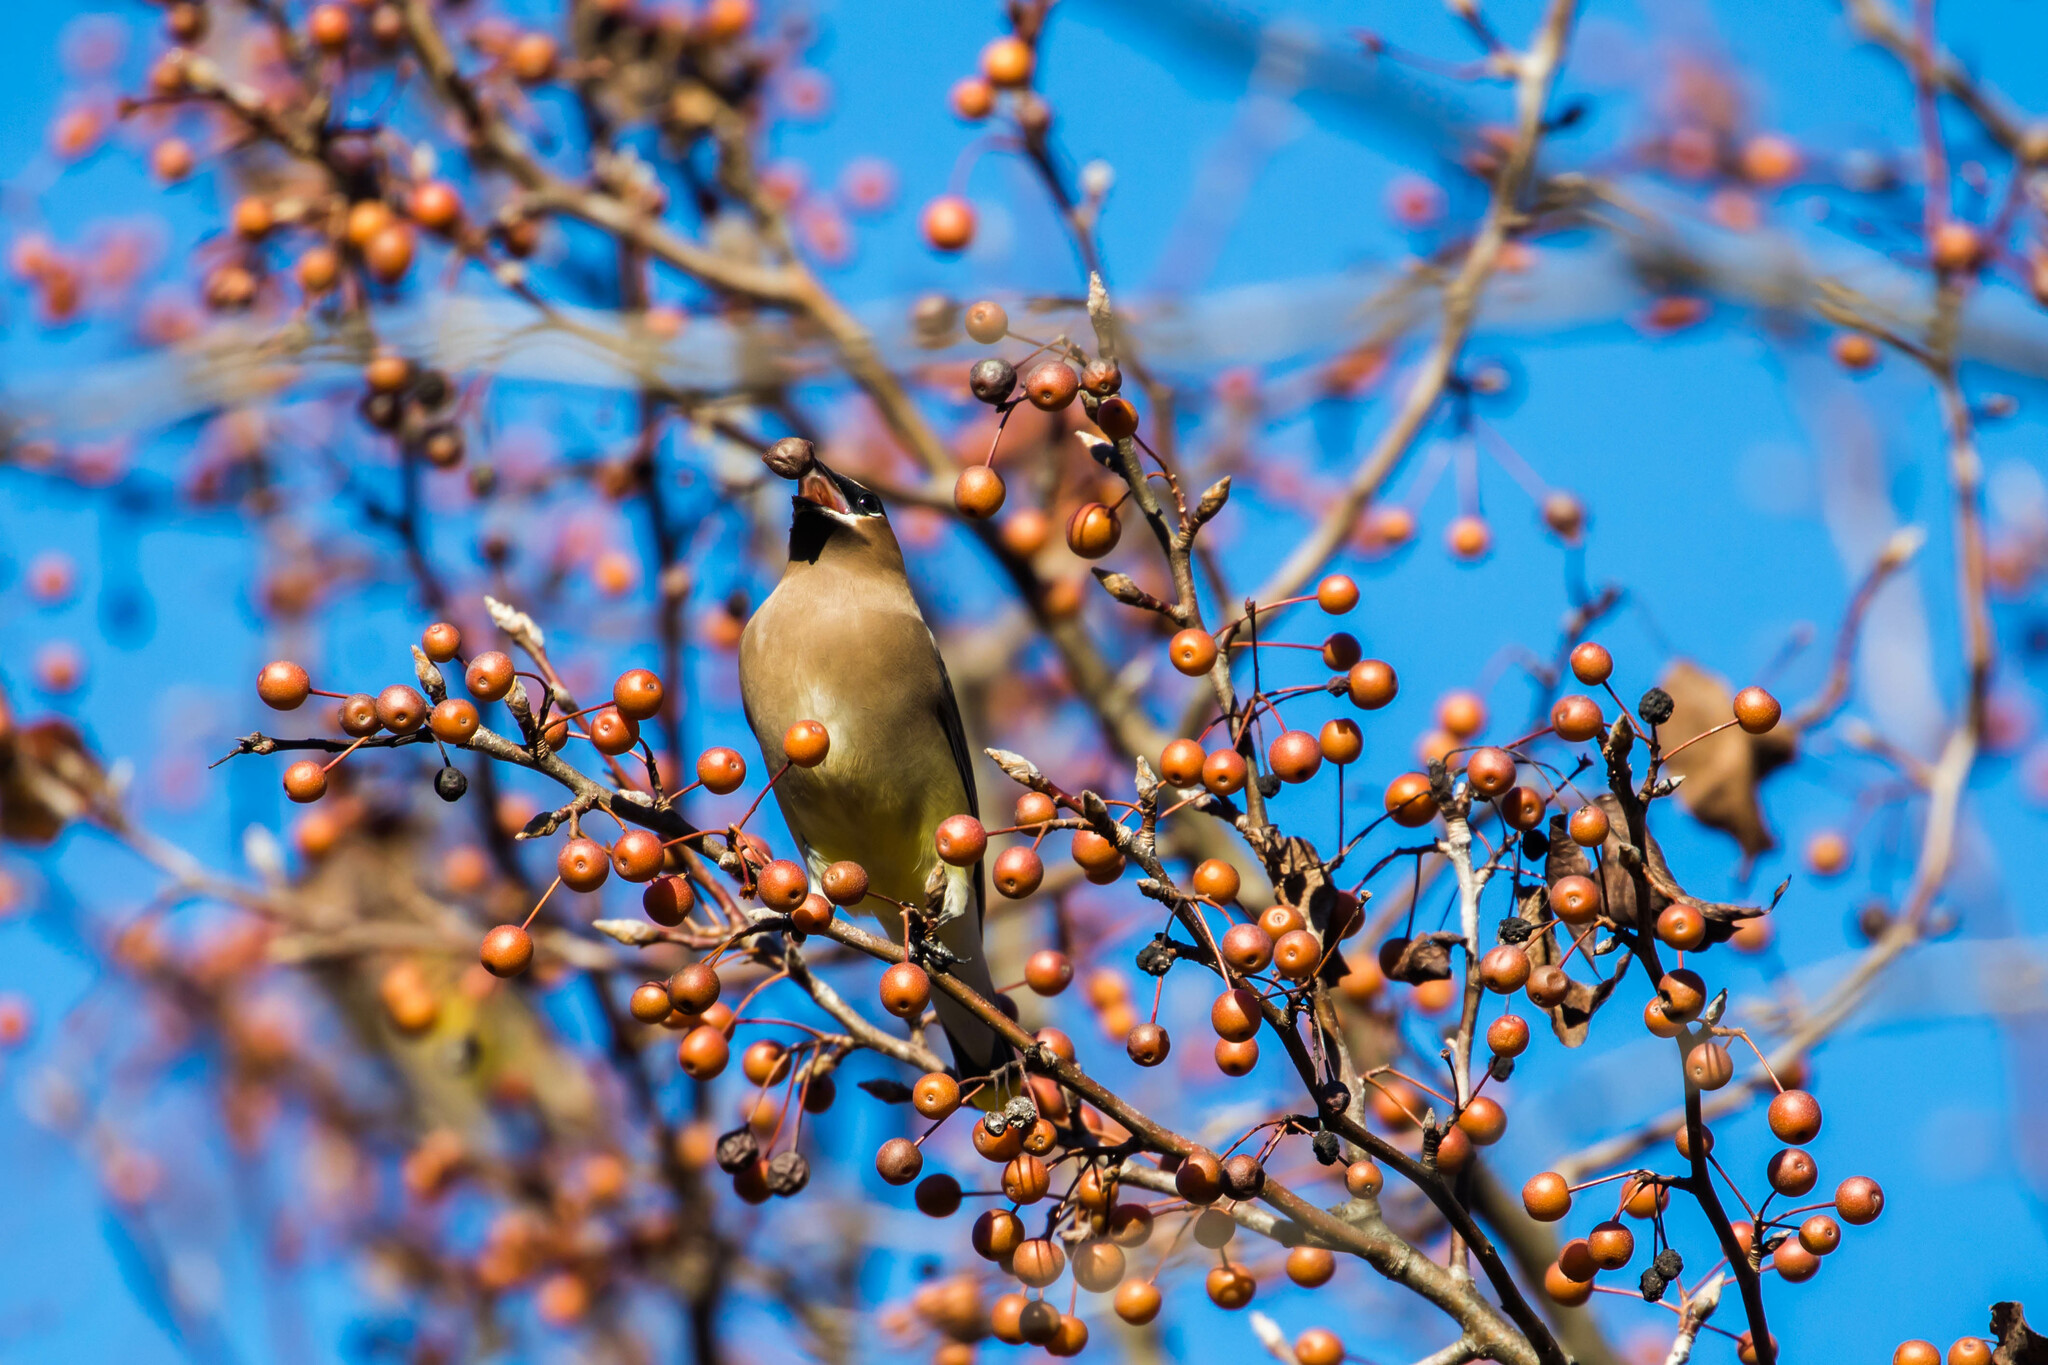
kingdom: Animalia
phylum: Chordata
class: Aves
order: Passeriformes
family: Bombycillidae
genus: Bombycilla
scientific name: Bombycilla cedrorum
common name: Cedar waxwing
